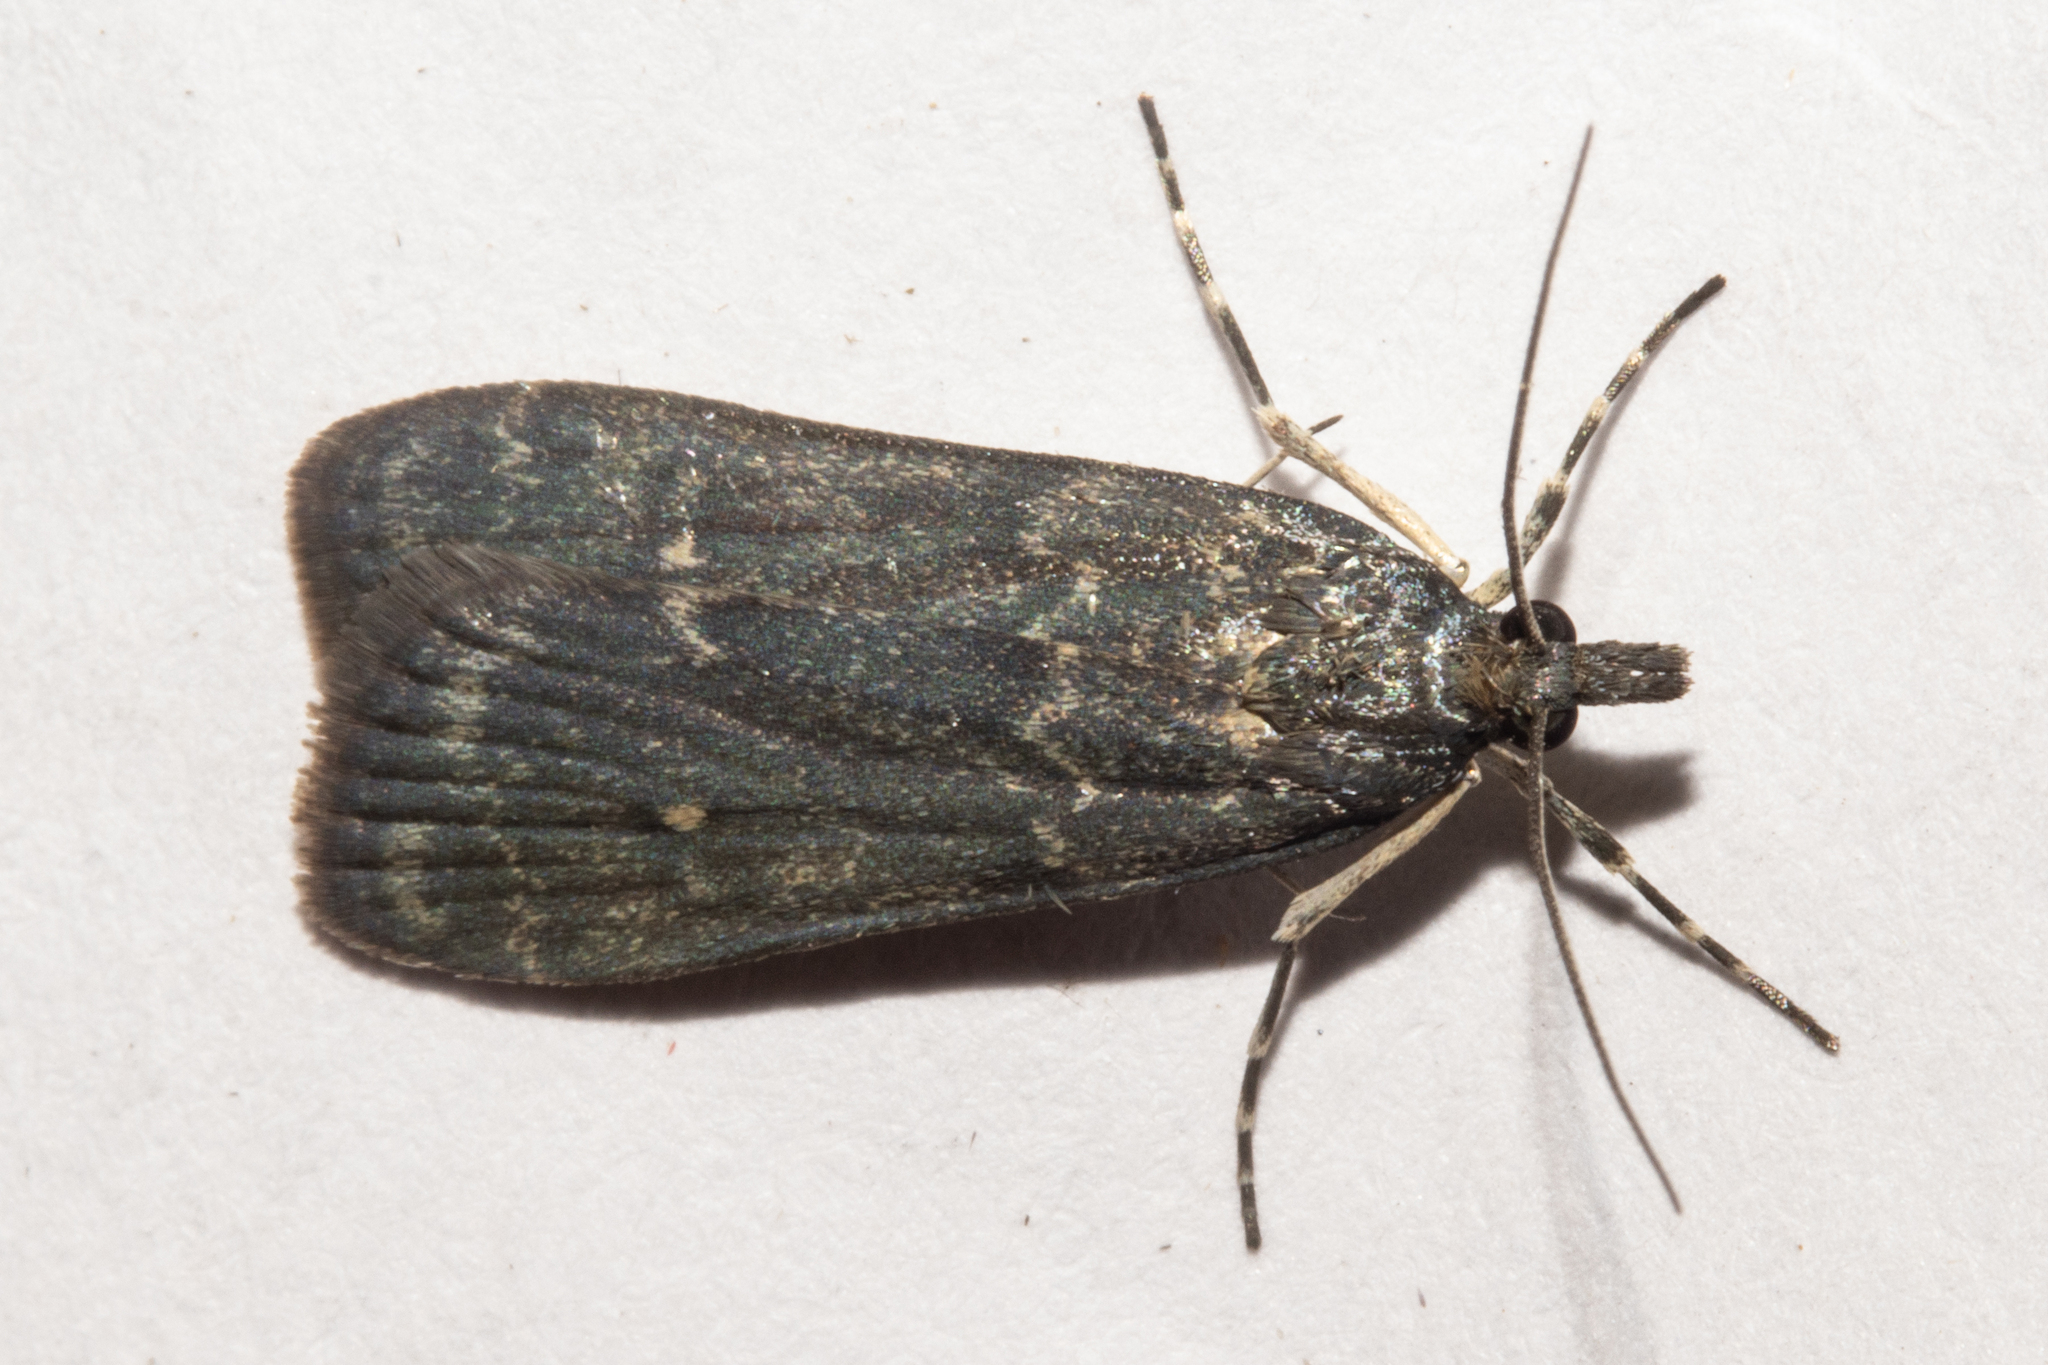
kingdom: Animalia
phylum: Arthropoda
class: Insecta
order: Lepidoptera
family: Crambidae
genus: Eudonia
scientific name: Eudonia cataxesta
